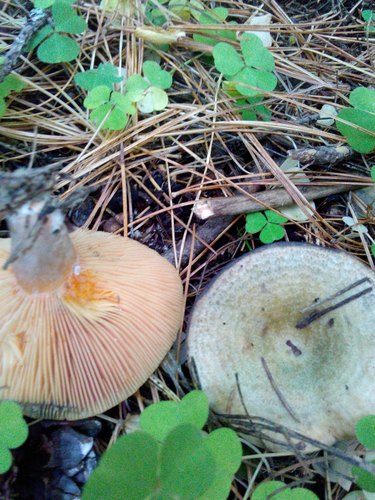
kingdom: Fungi
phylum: Basidiomycota
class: Agaricomycetes
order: Russulales
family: Russulaceae
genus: Lactarius
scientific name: Lactarius deterrimus
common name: False saffron milkcap
